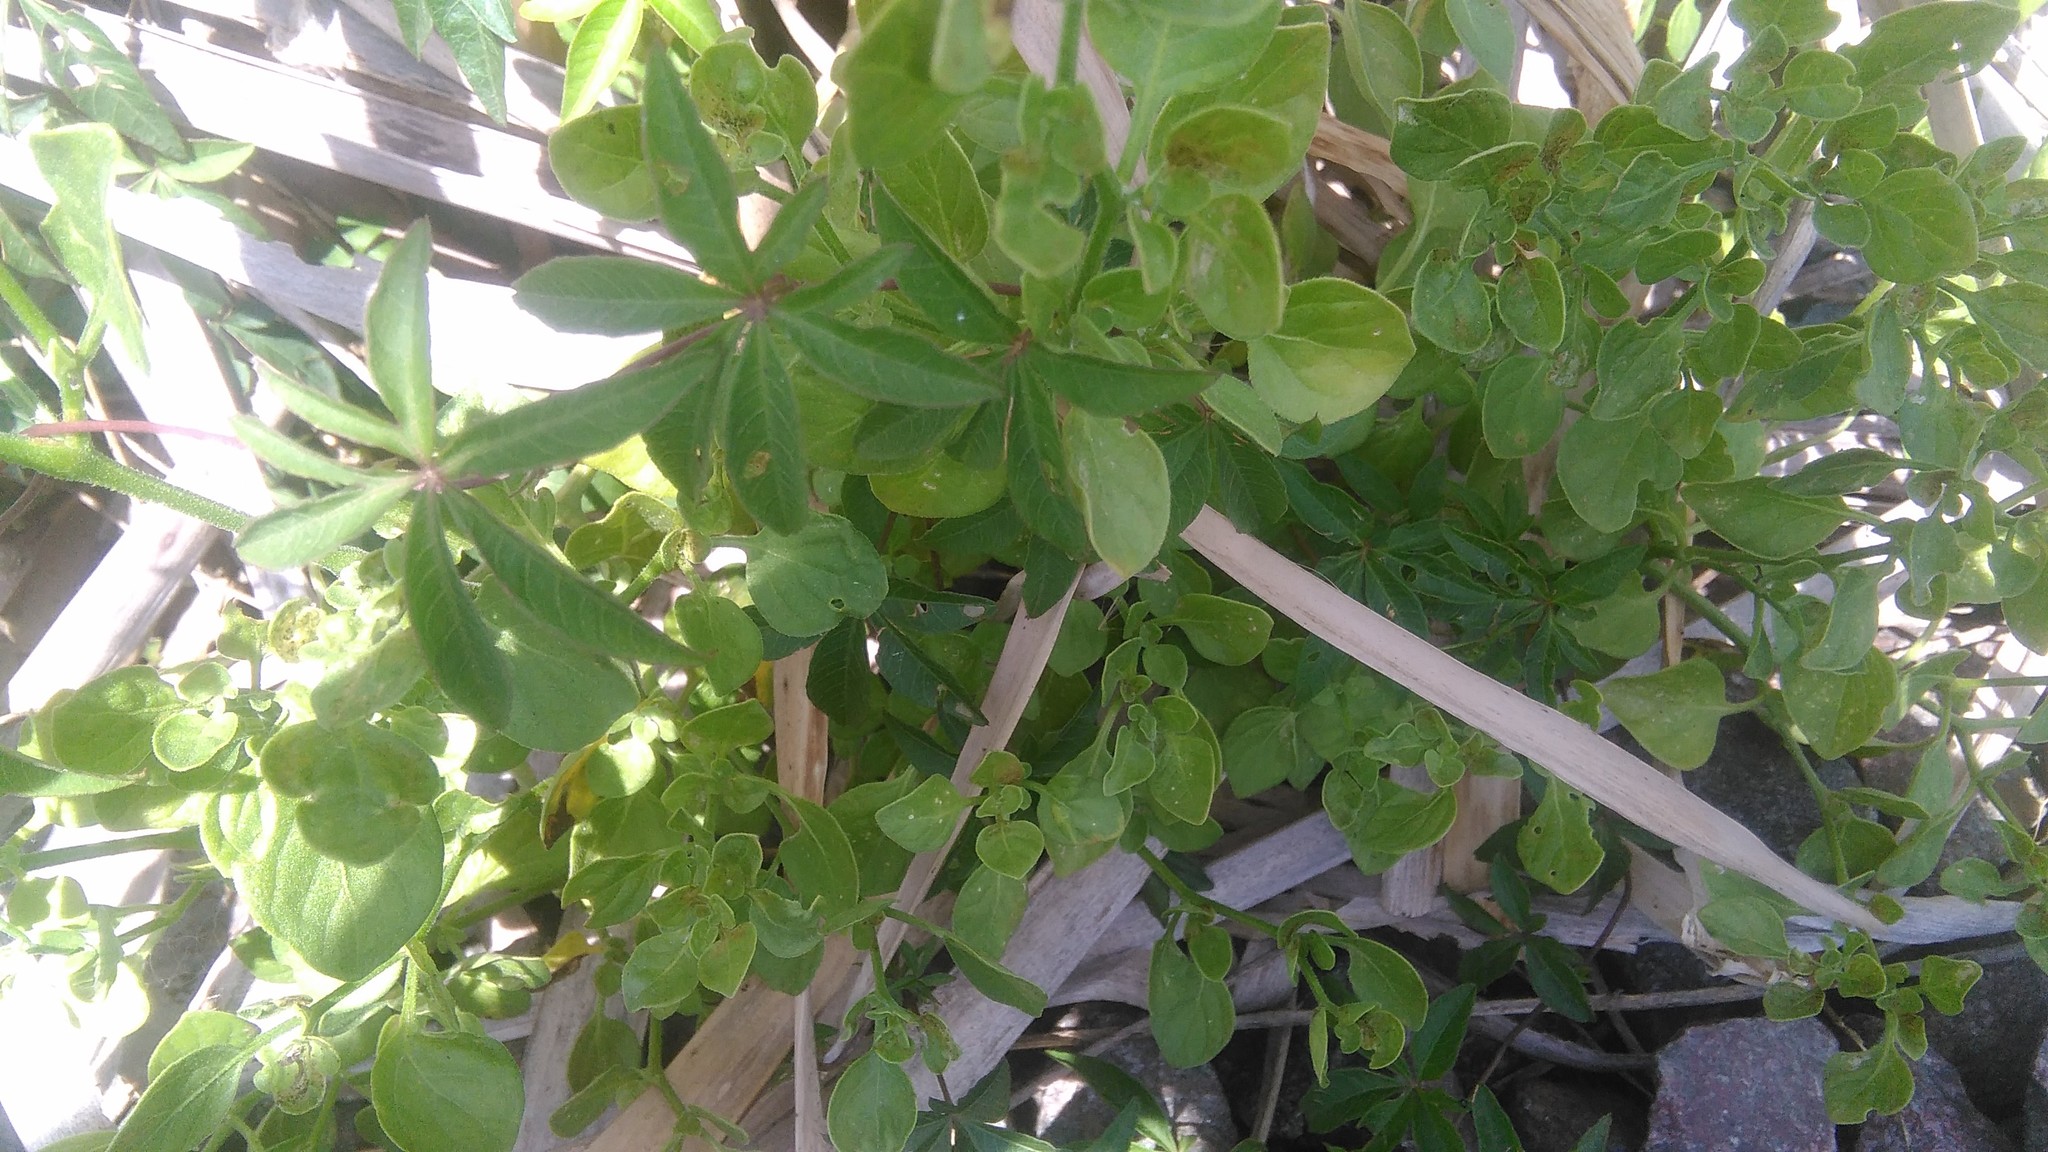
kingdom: Plantae
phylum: Tracheophyta
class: Magnoliopsida
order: Solanales
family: Solanaceae
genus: Salpichroa
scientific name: Salpichroa origanifolia
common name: Lily-of-the-valley-vine
